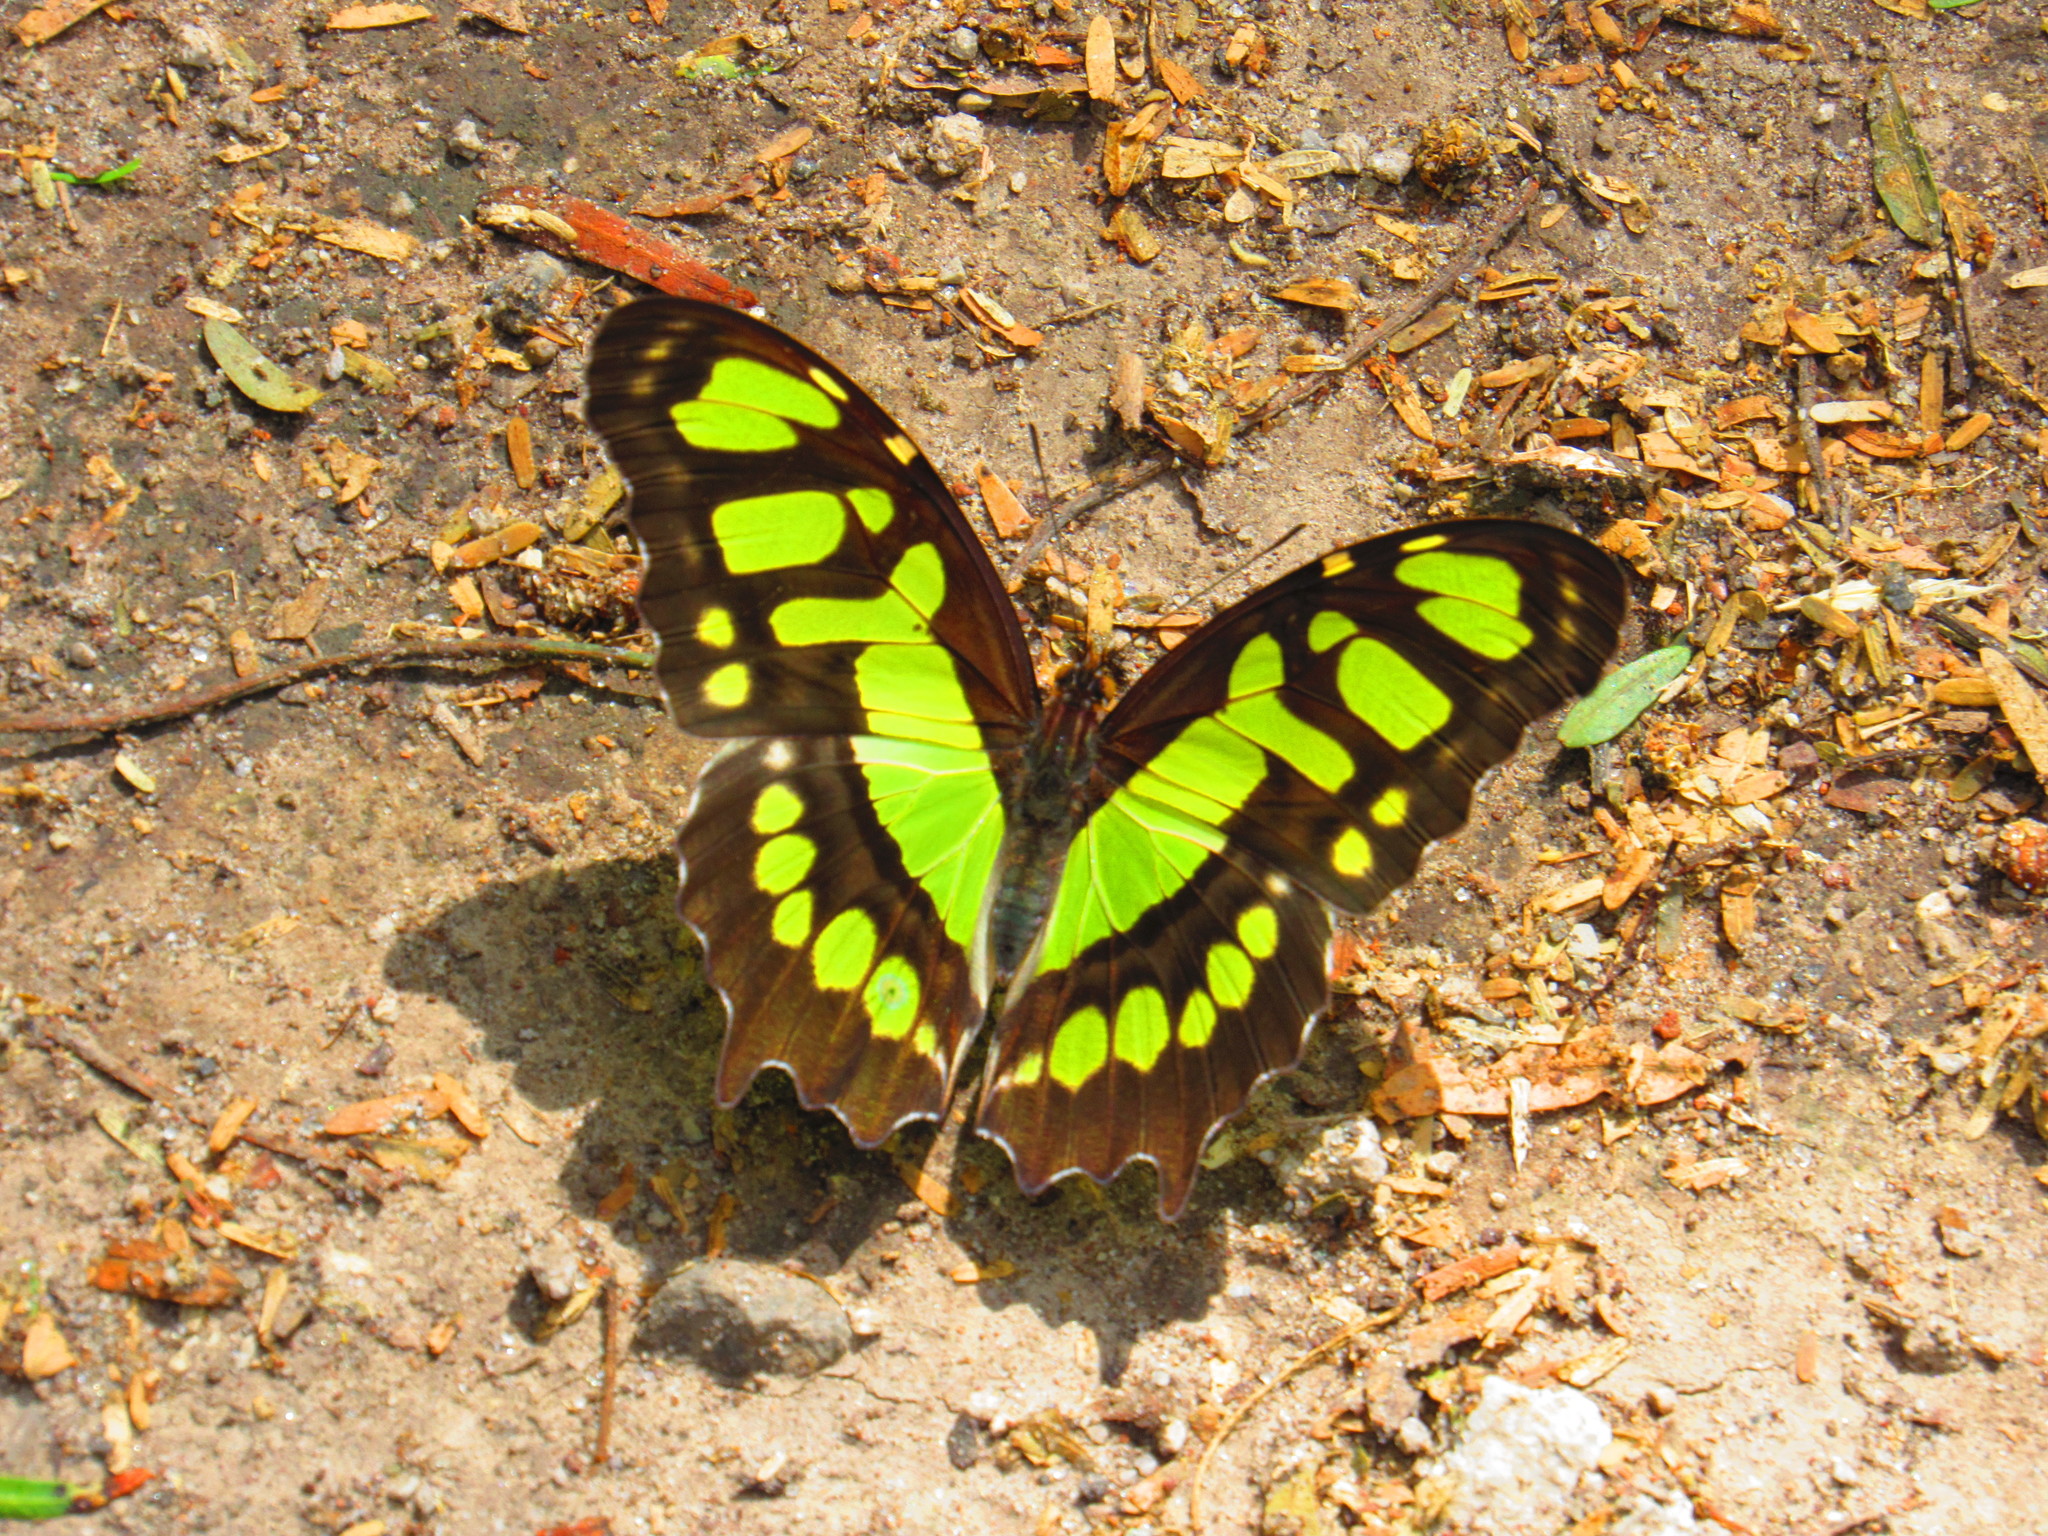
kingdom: Animalia
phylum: Arthropoda
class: Insecta
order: Lepidoptera
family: Nymphalidae
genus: Siproeta
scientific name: Siproeta stelenes
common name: Malachite
